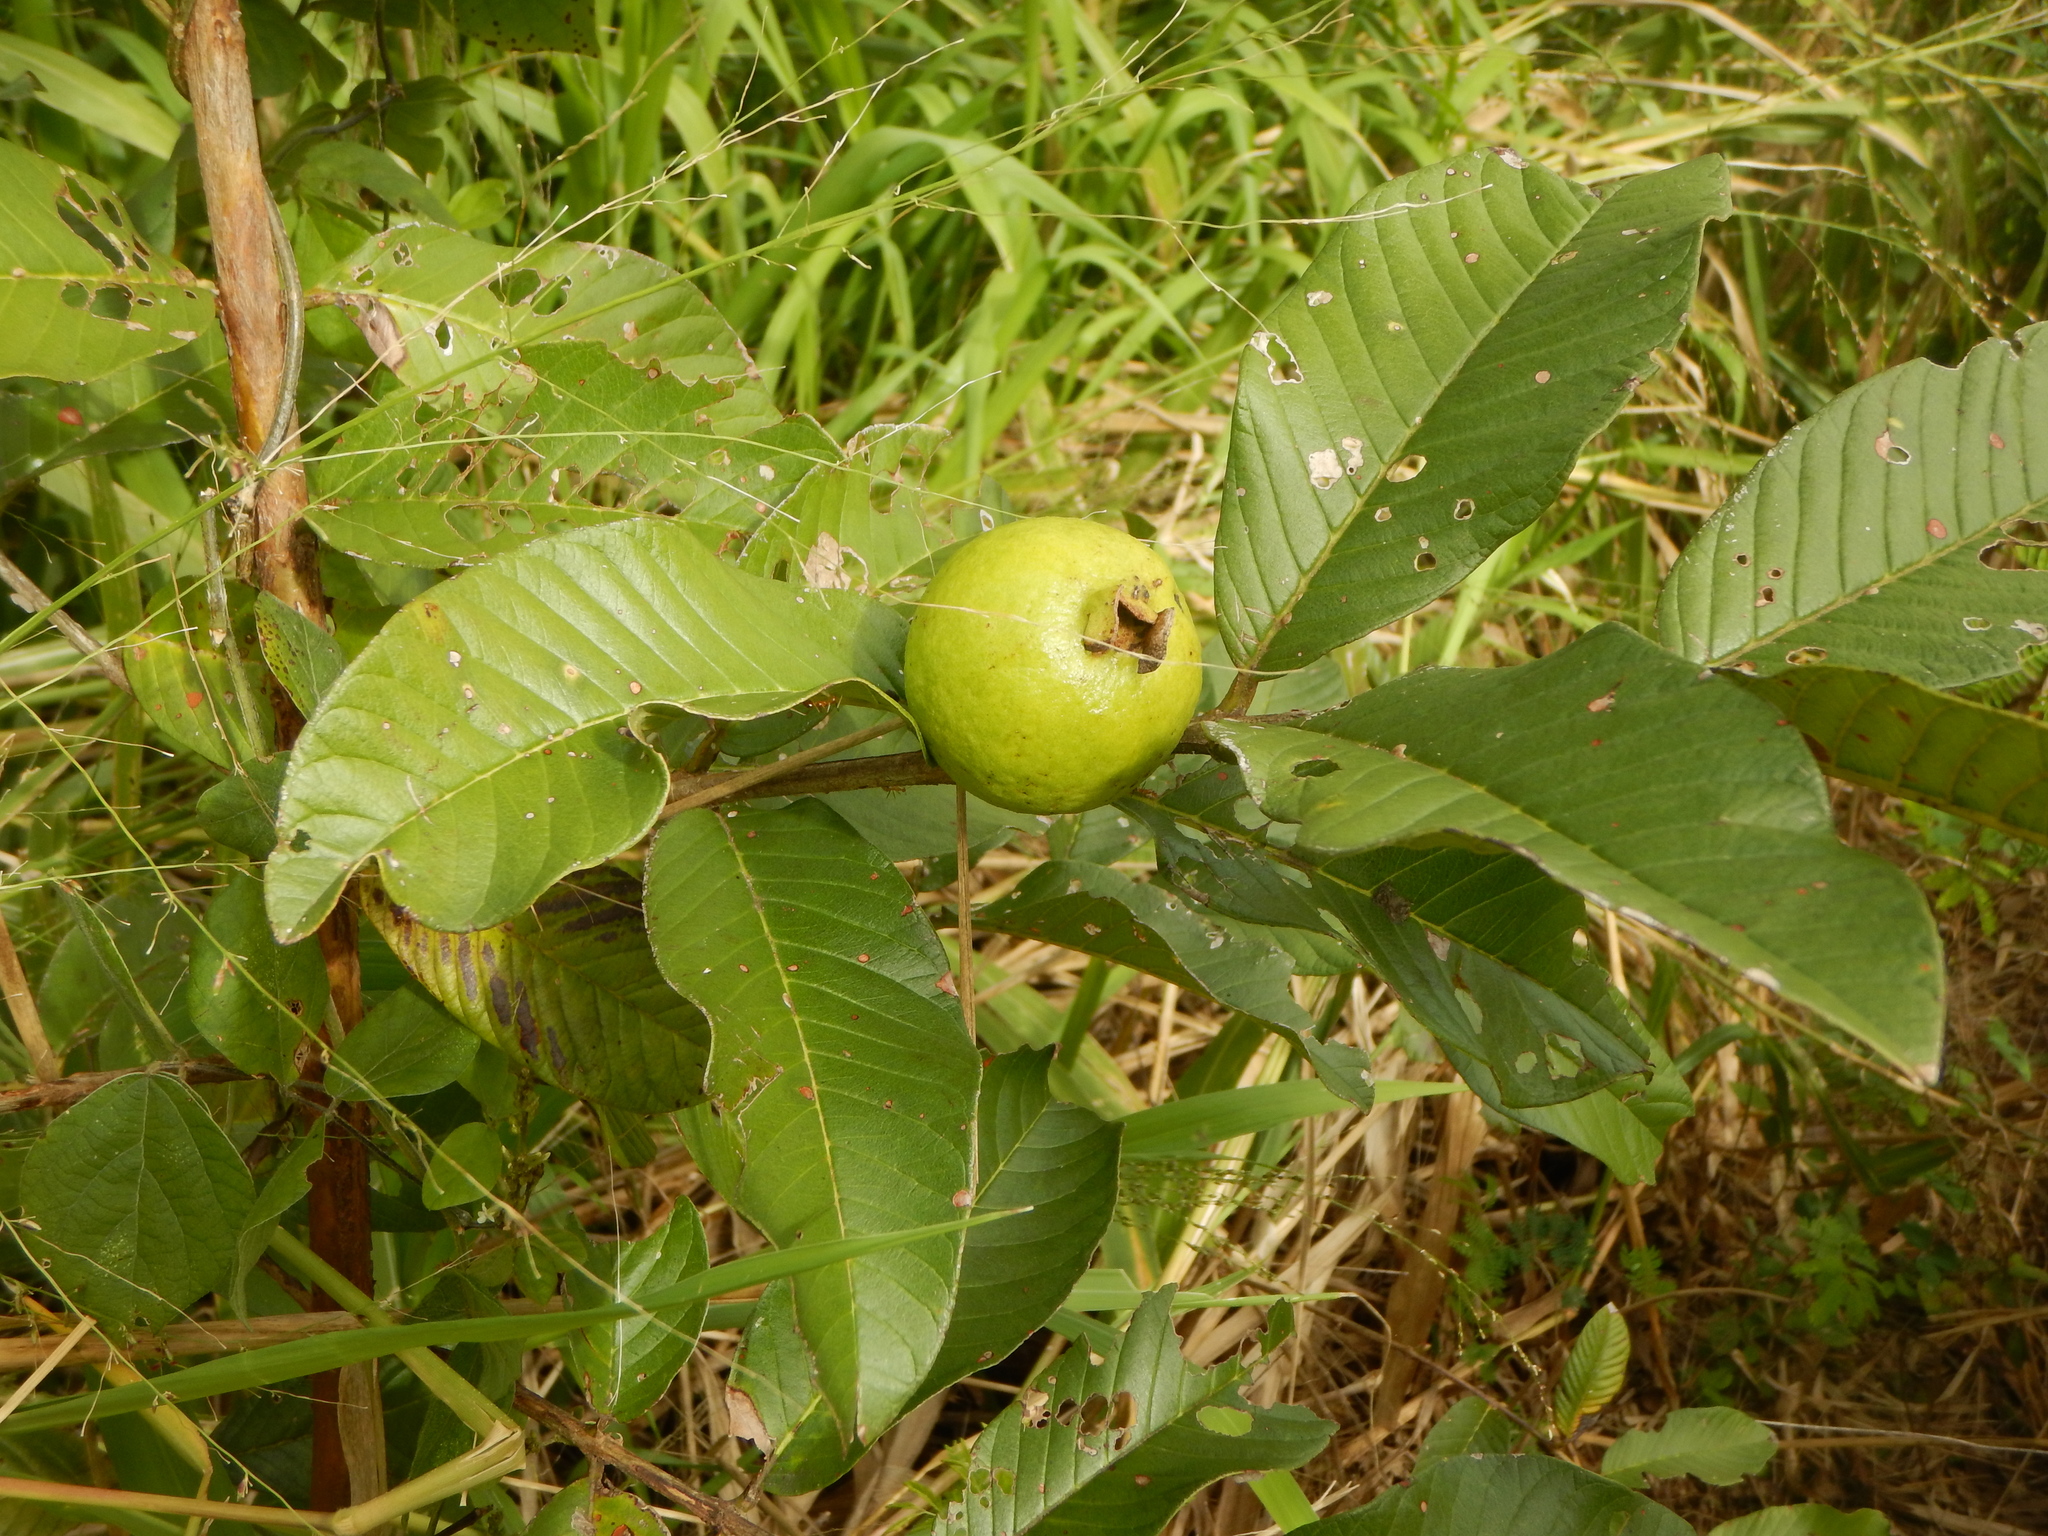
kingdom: Plantae
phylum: Tracheophyta
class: Magnoliopsida
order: Myrtales
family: Myrtaceae
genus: Psidium
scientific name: Psidium guajava
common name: Guava
